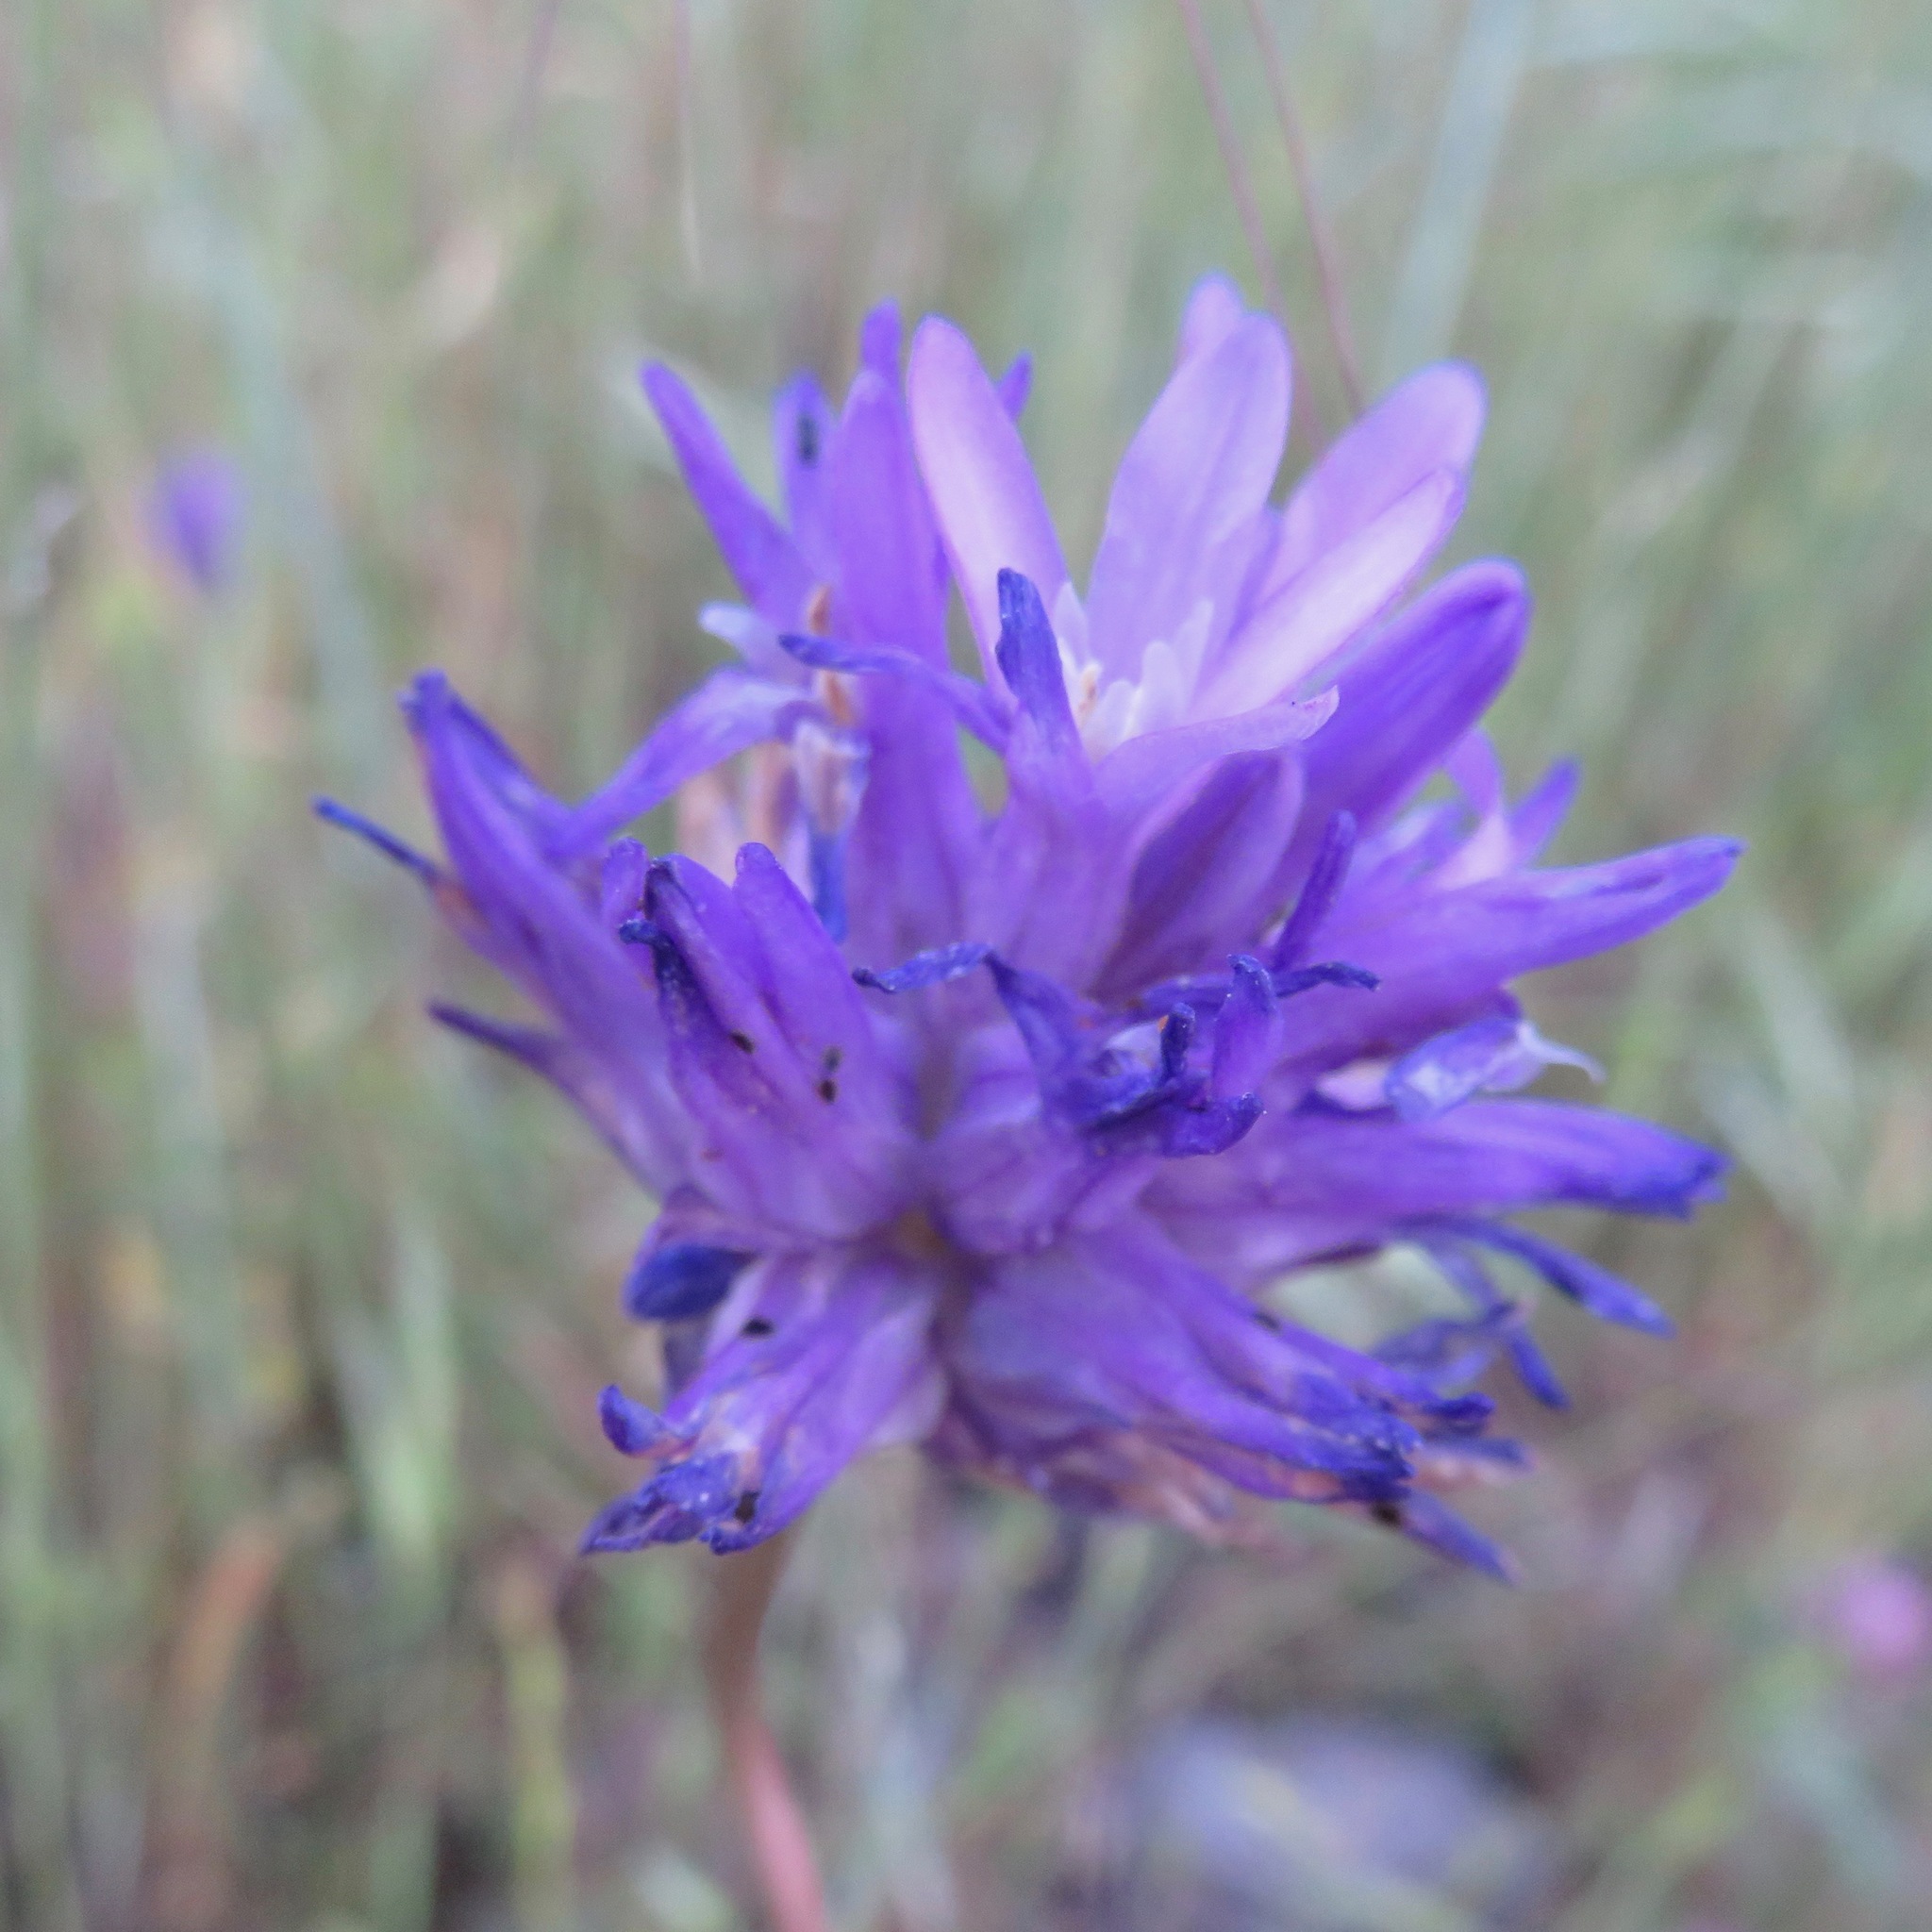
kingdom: Plantae
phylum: Tracheophyta
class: Liliopsida
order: Asparagales
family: Asparagaceae
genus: Dichelostemma
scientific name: Dichelostemma congestum
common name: Fork-tooth ookow
